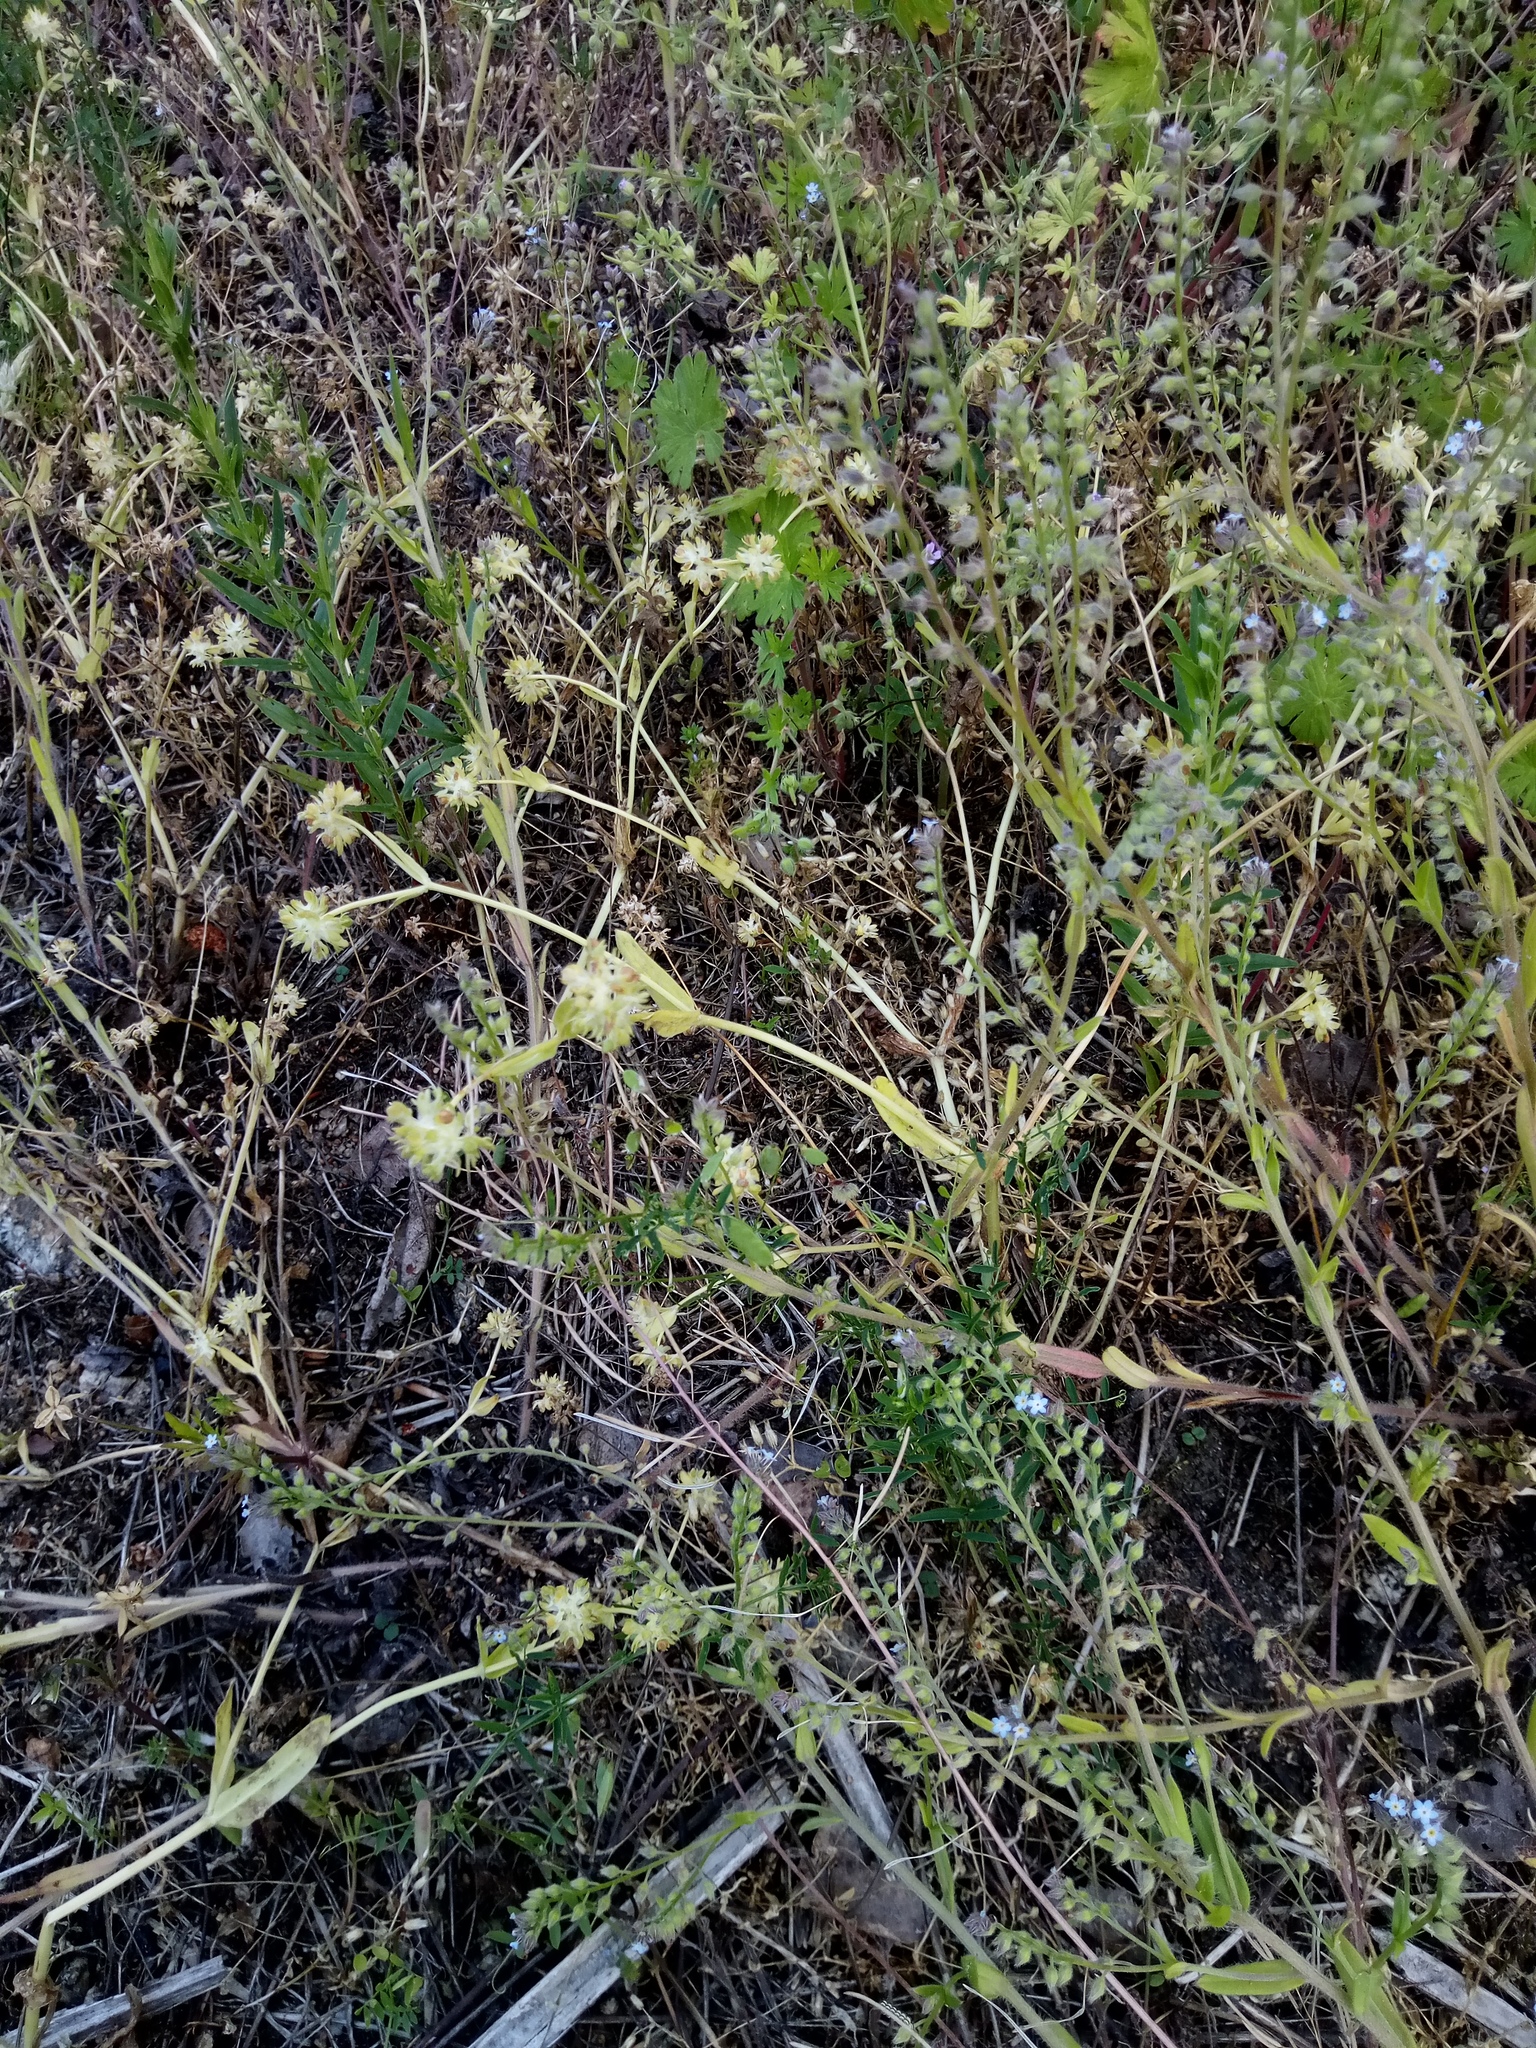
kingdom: Plantae
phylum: Tracheophyta
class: Magnoliopsida
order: Dipsacales
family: Caprifoliaceae
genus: Valerianella
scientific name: Valerianella locusta
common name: Common cornsalad
